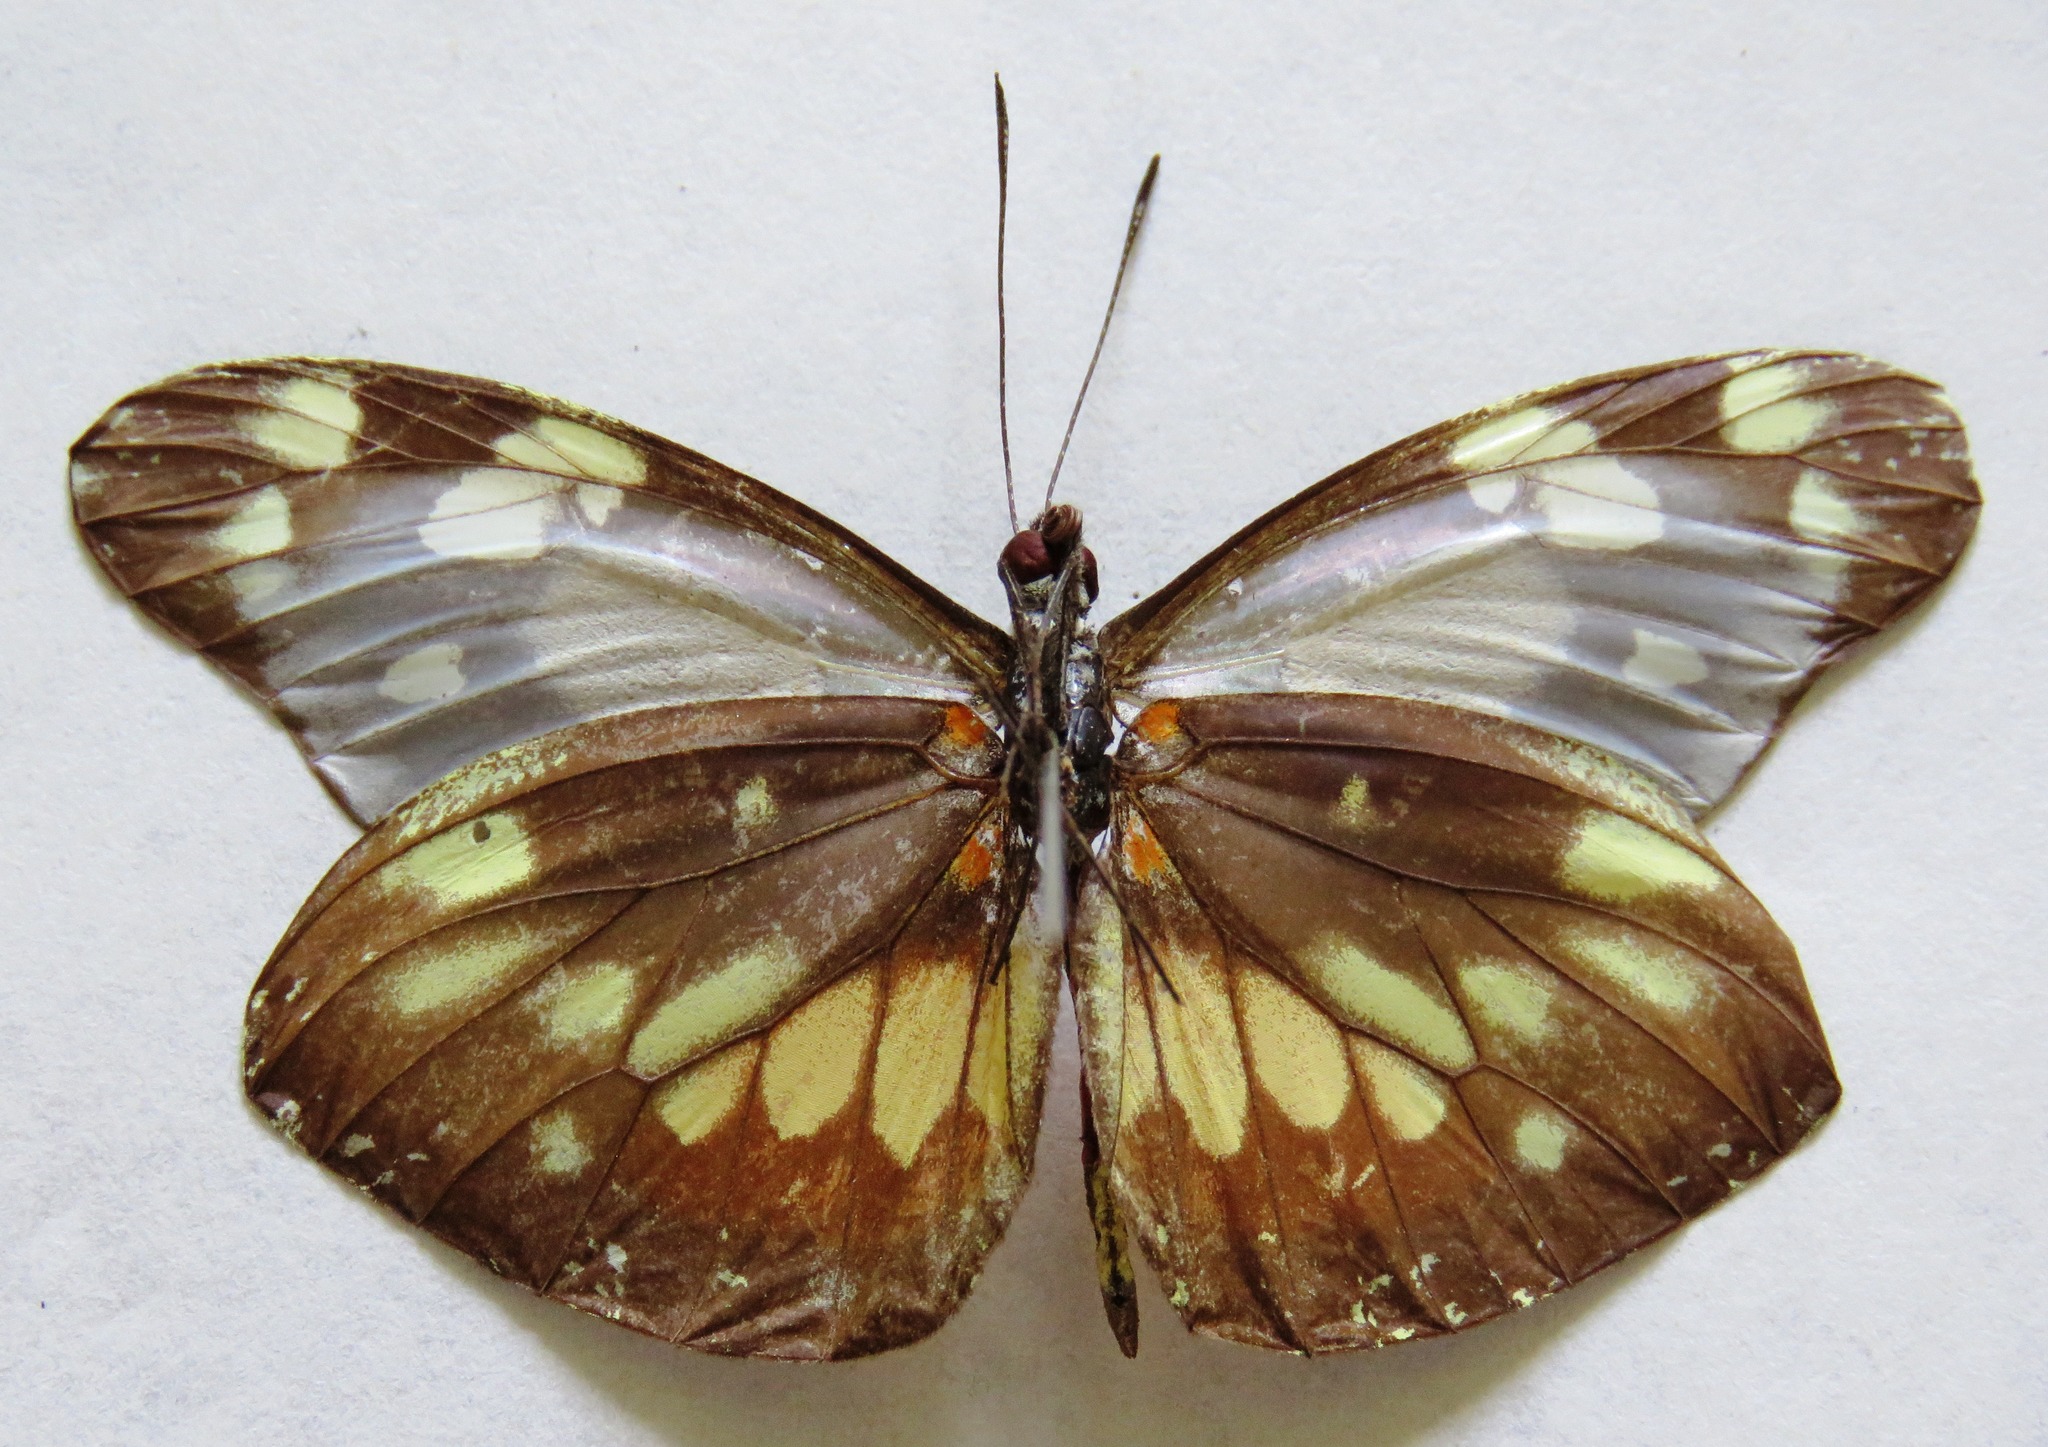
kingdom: Animalia
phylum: Arthropoda
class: Insecta
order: Lepidoptera
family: Pieridae
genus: Dismorphia
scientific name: Dismorphia eunoe
